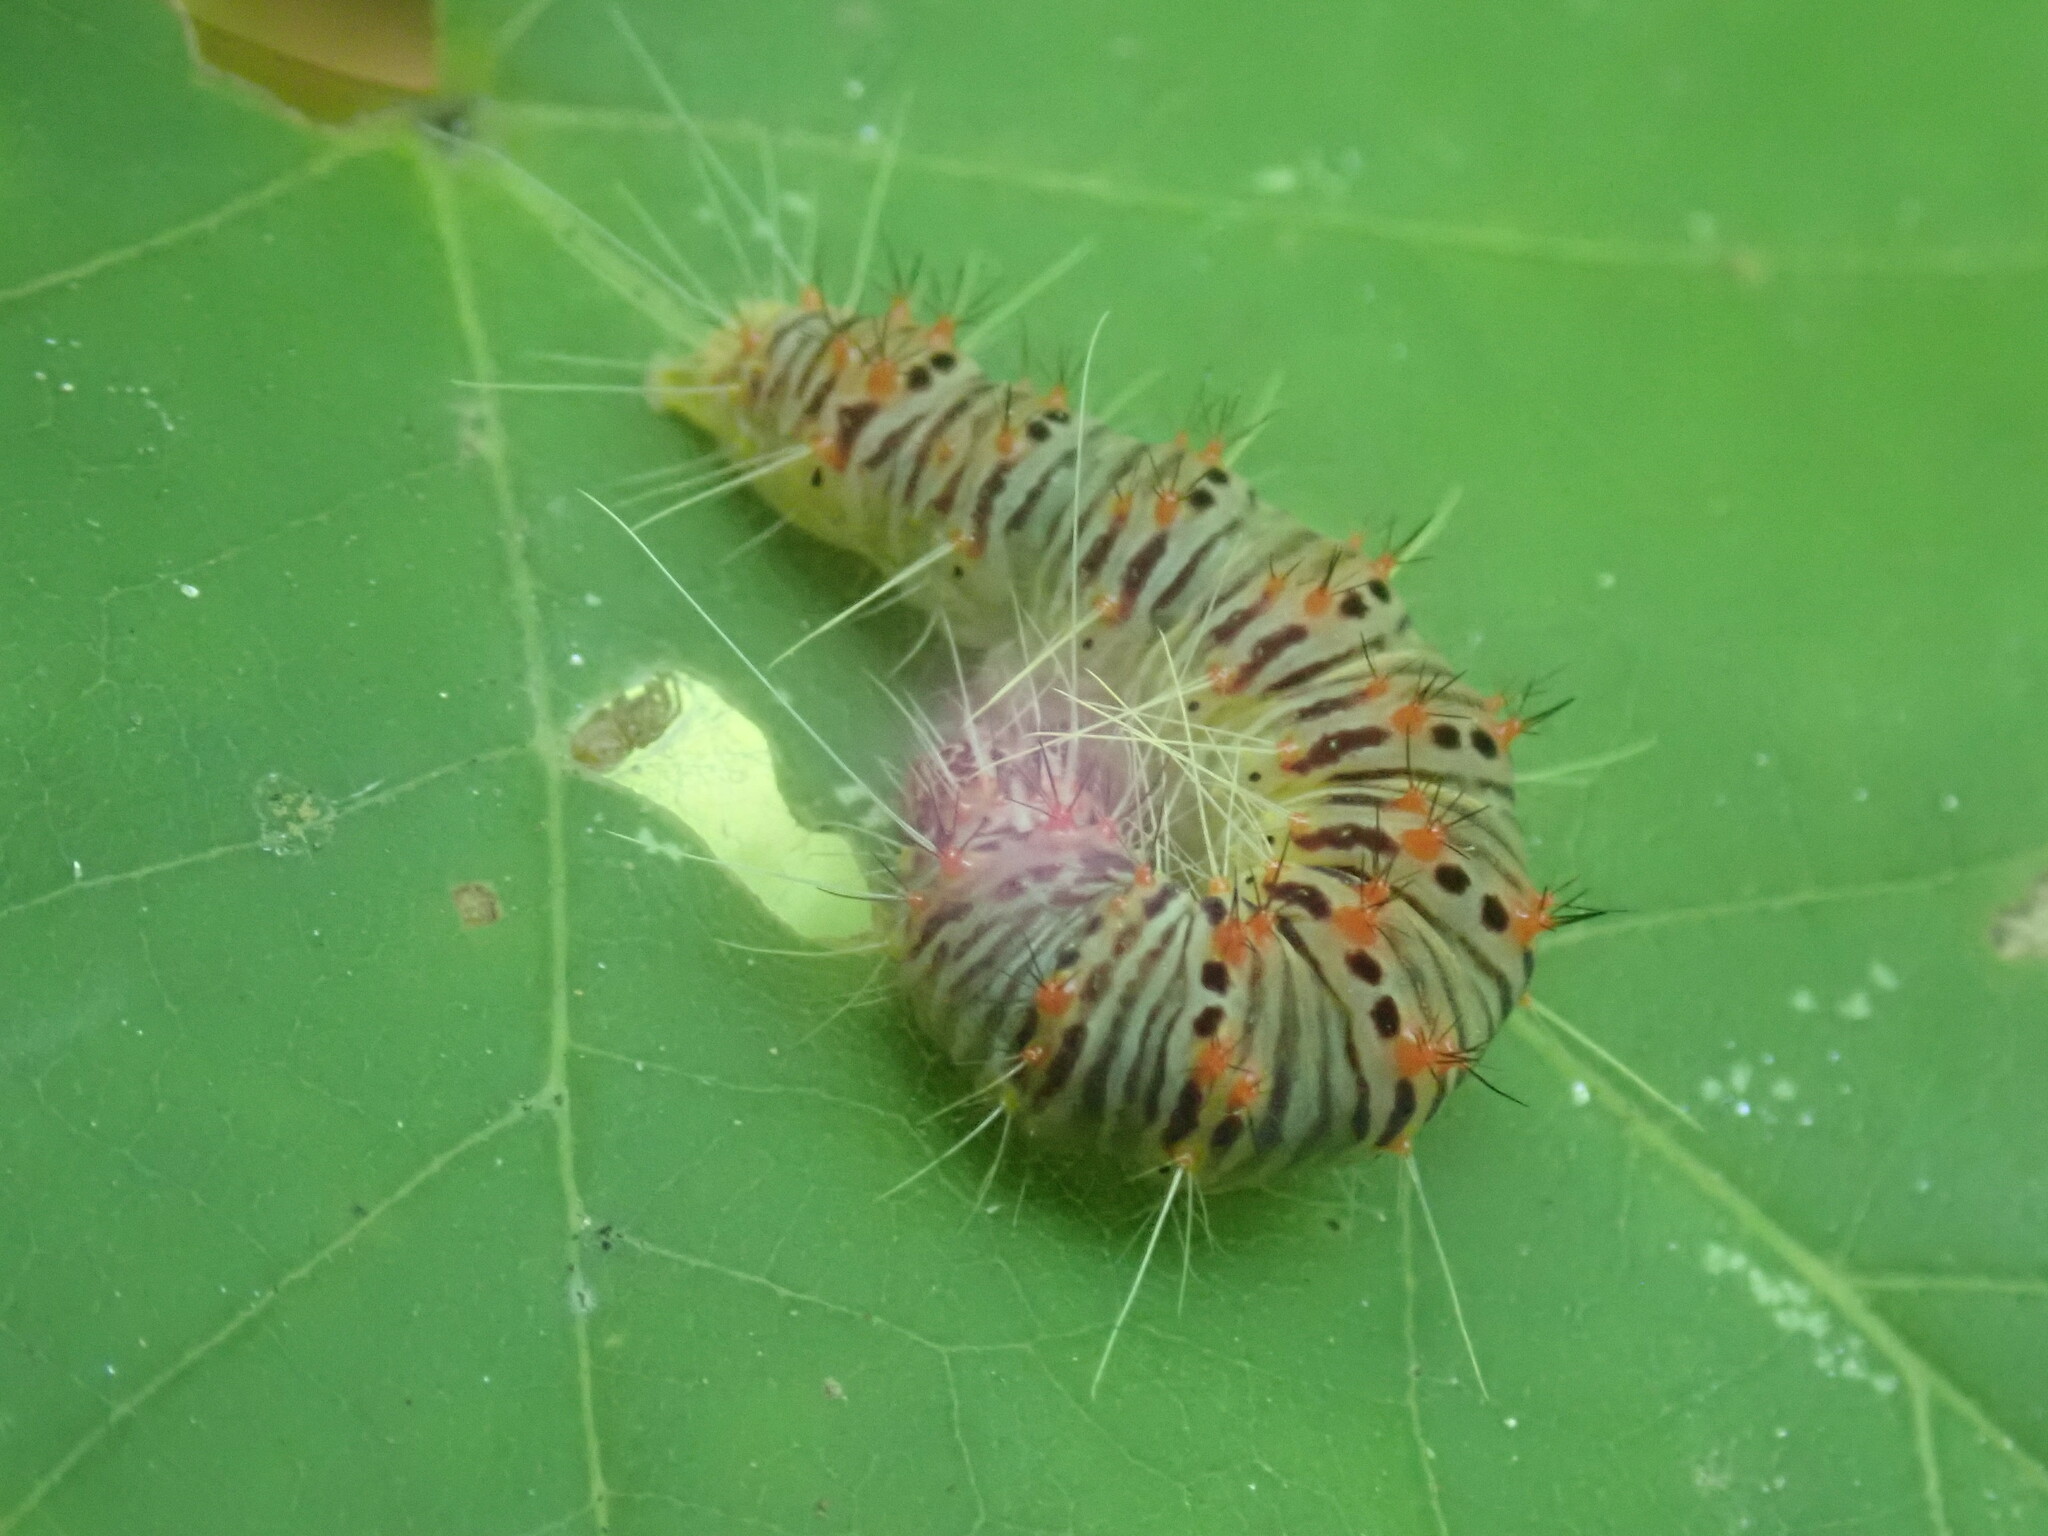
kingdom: Animalia
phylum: Arthropoda
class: Insecta
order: Lepidoptera
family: Noctuidae
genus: Acronicta
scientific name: Acronicta retardata
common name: Maple dagger
